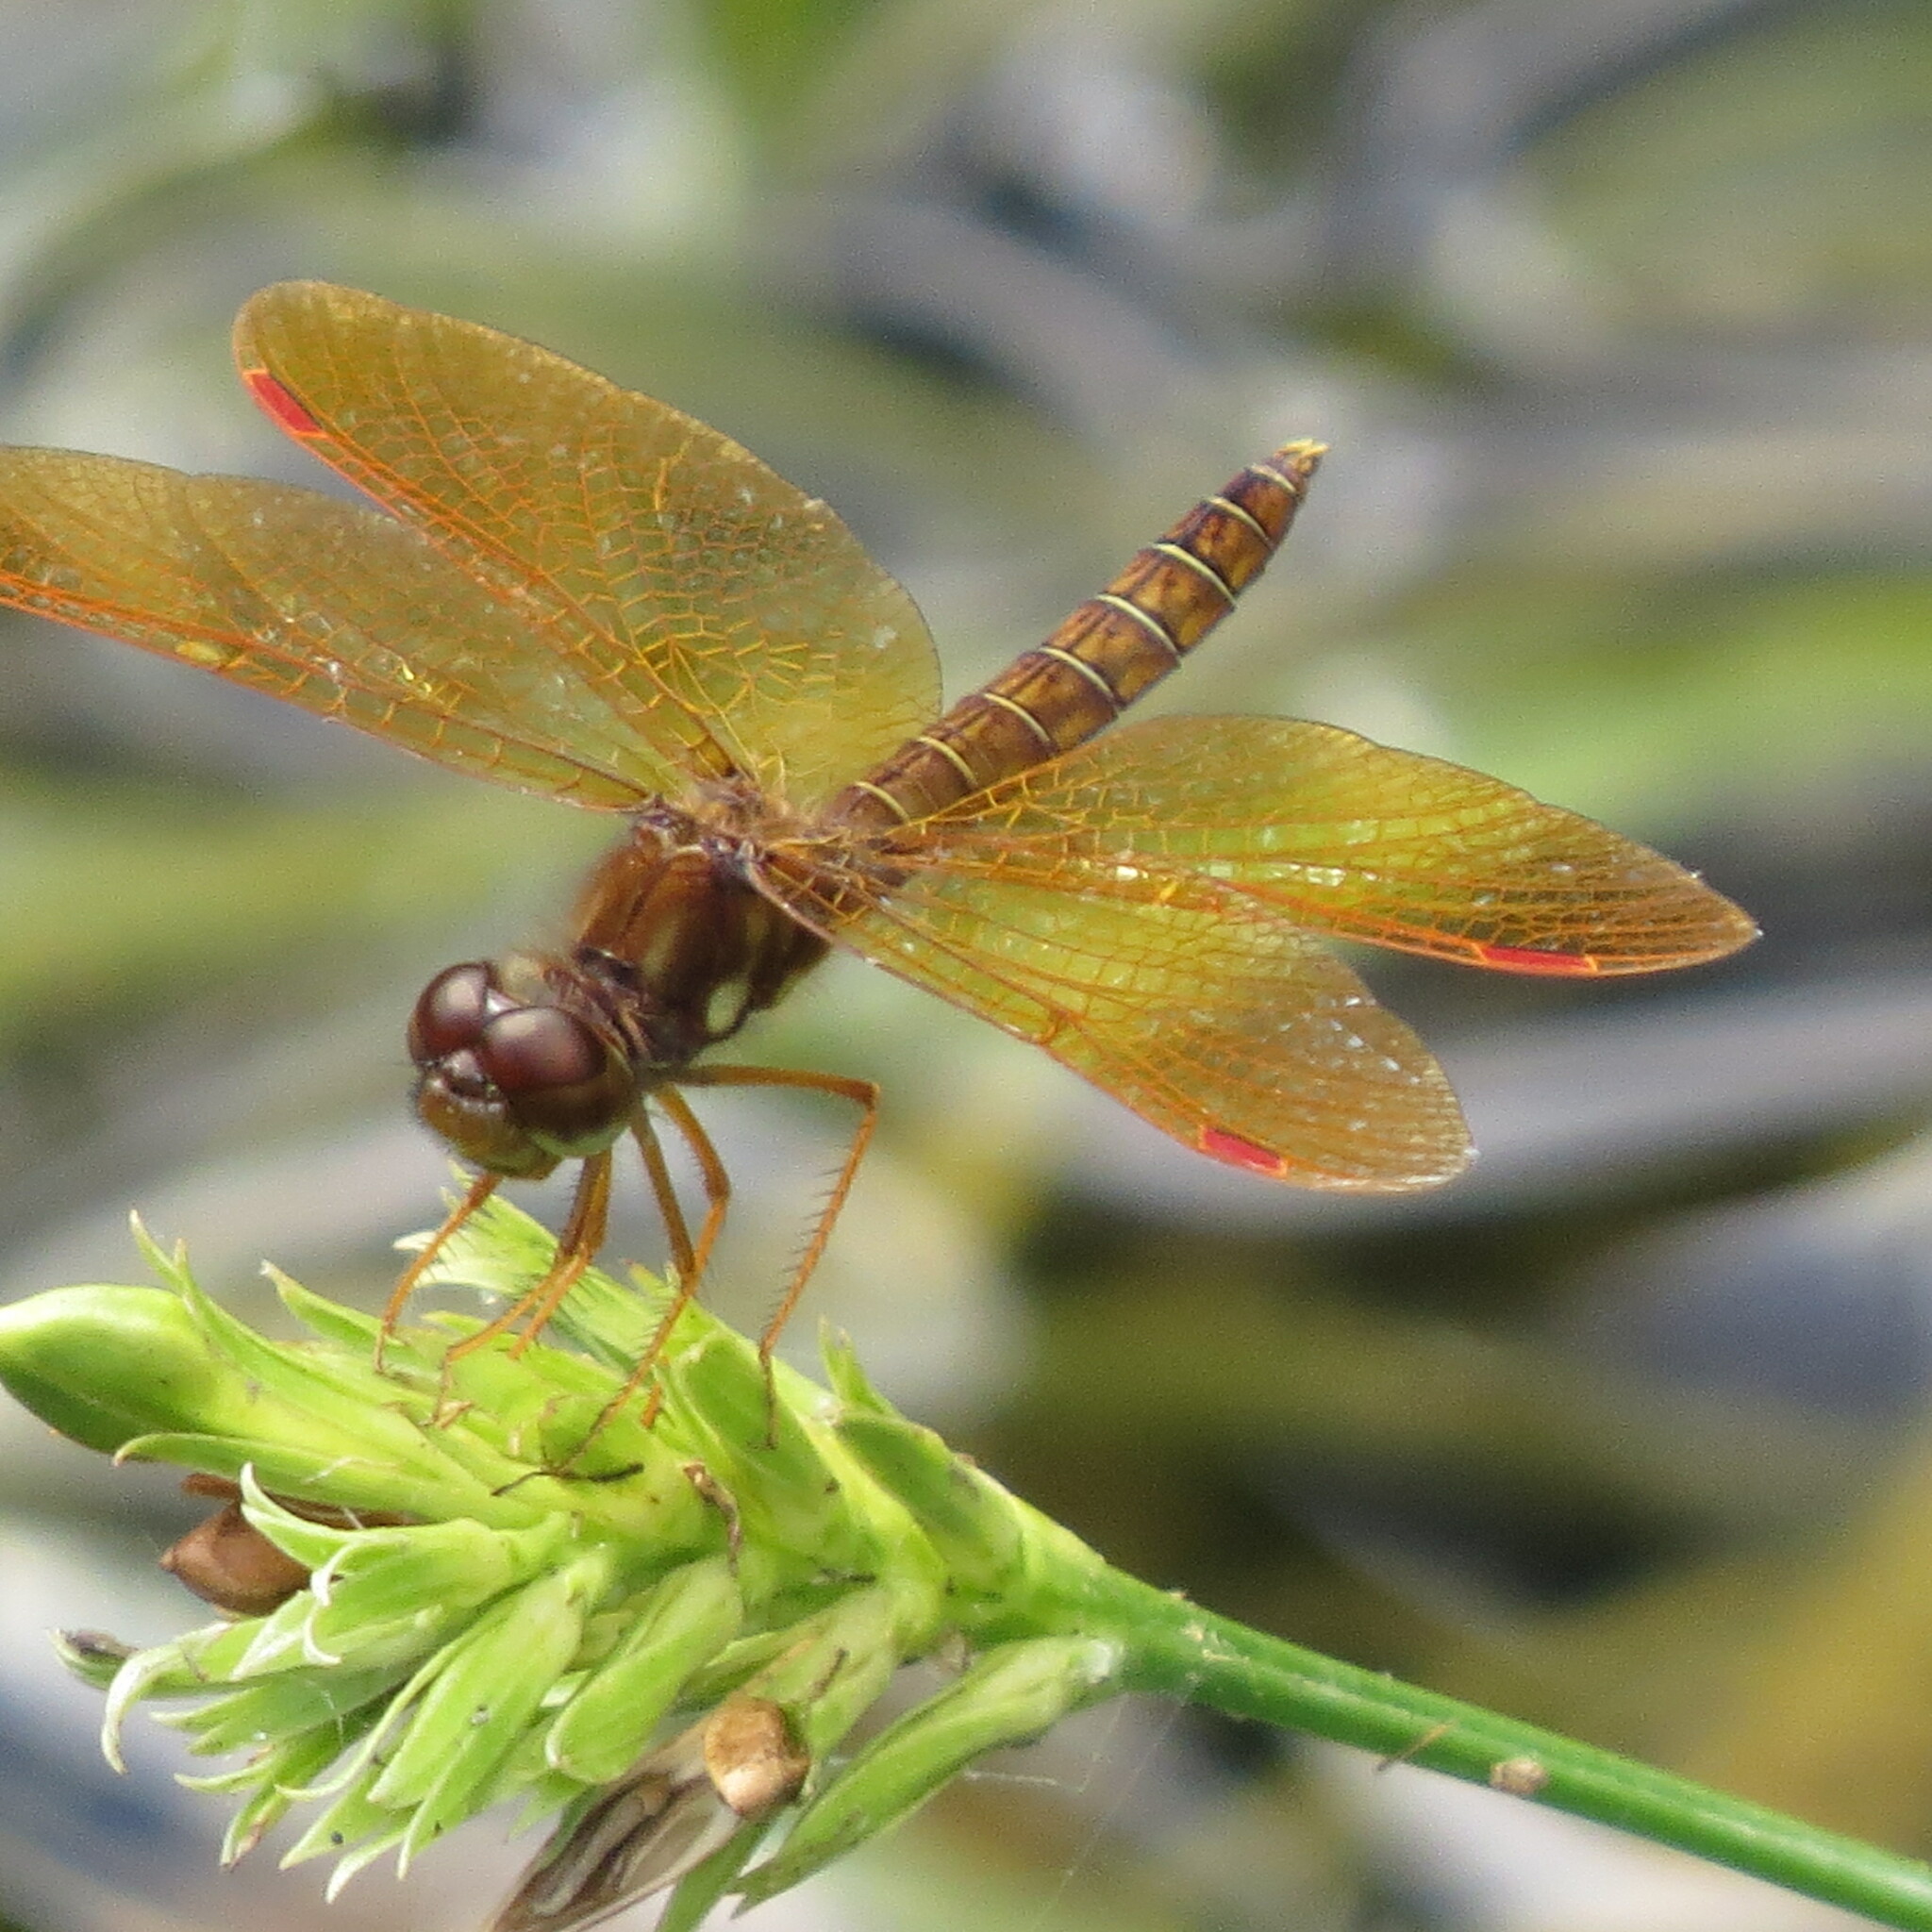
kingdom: Animalia
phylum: Arthropoda
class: Insecta
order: Odonata
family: Libellulidae
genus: Perithemis
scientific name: Perithemis tenera
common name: Eastern amberwing
